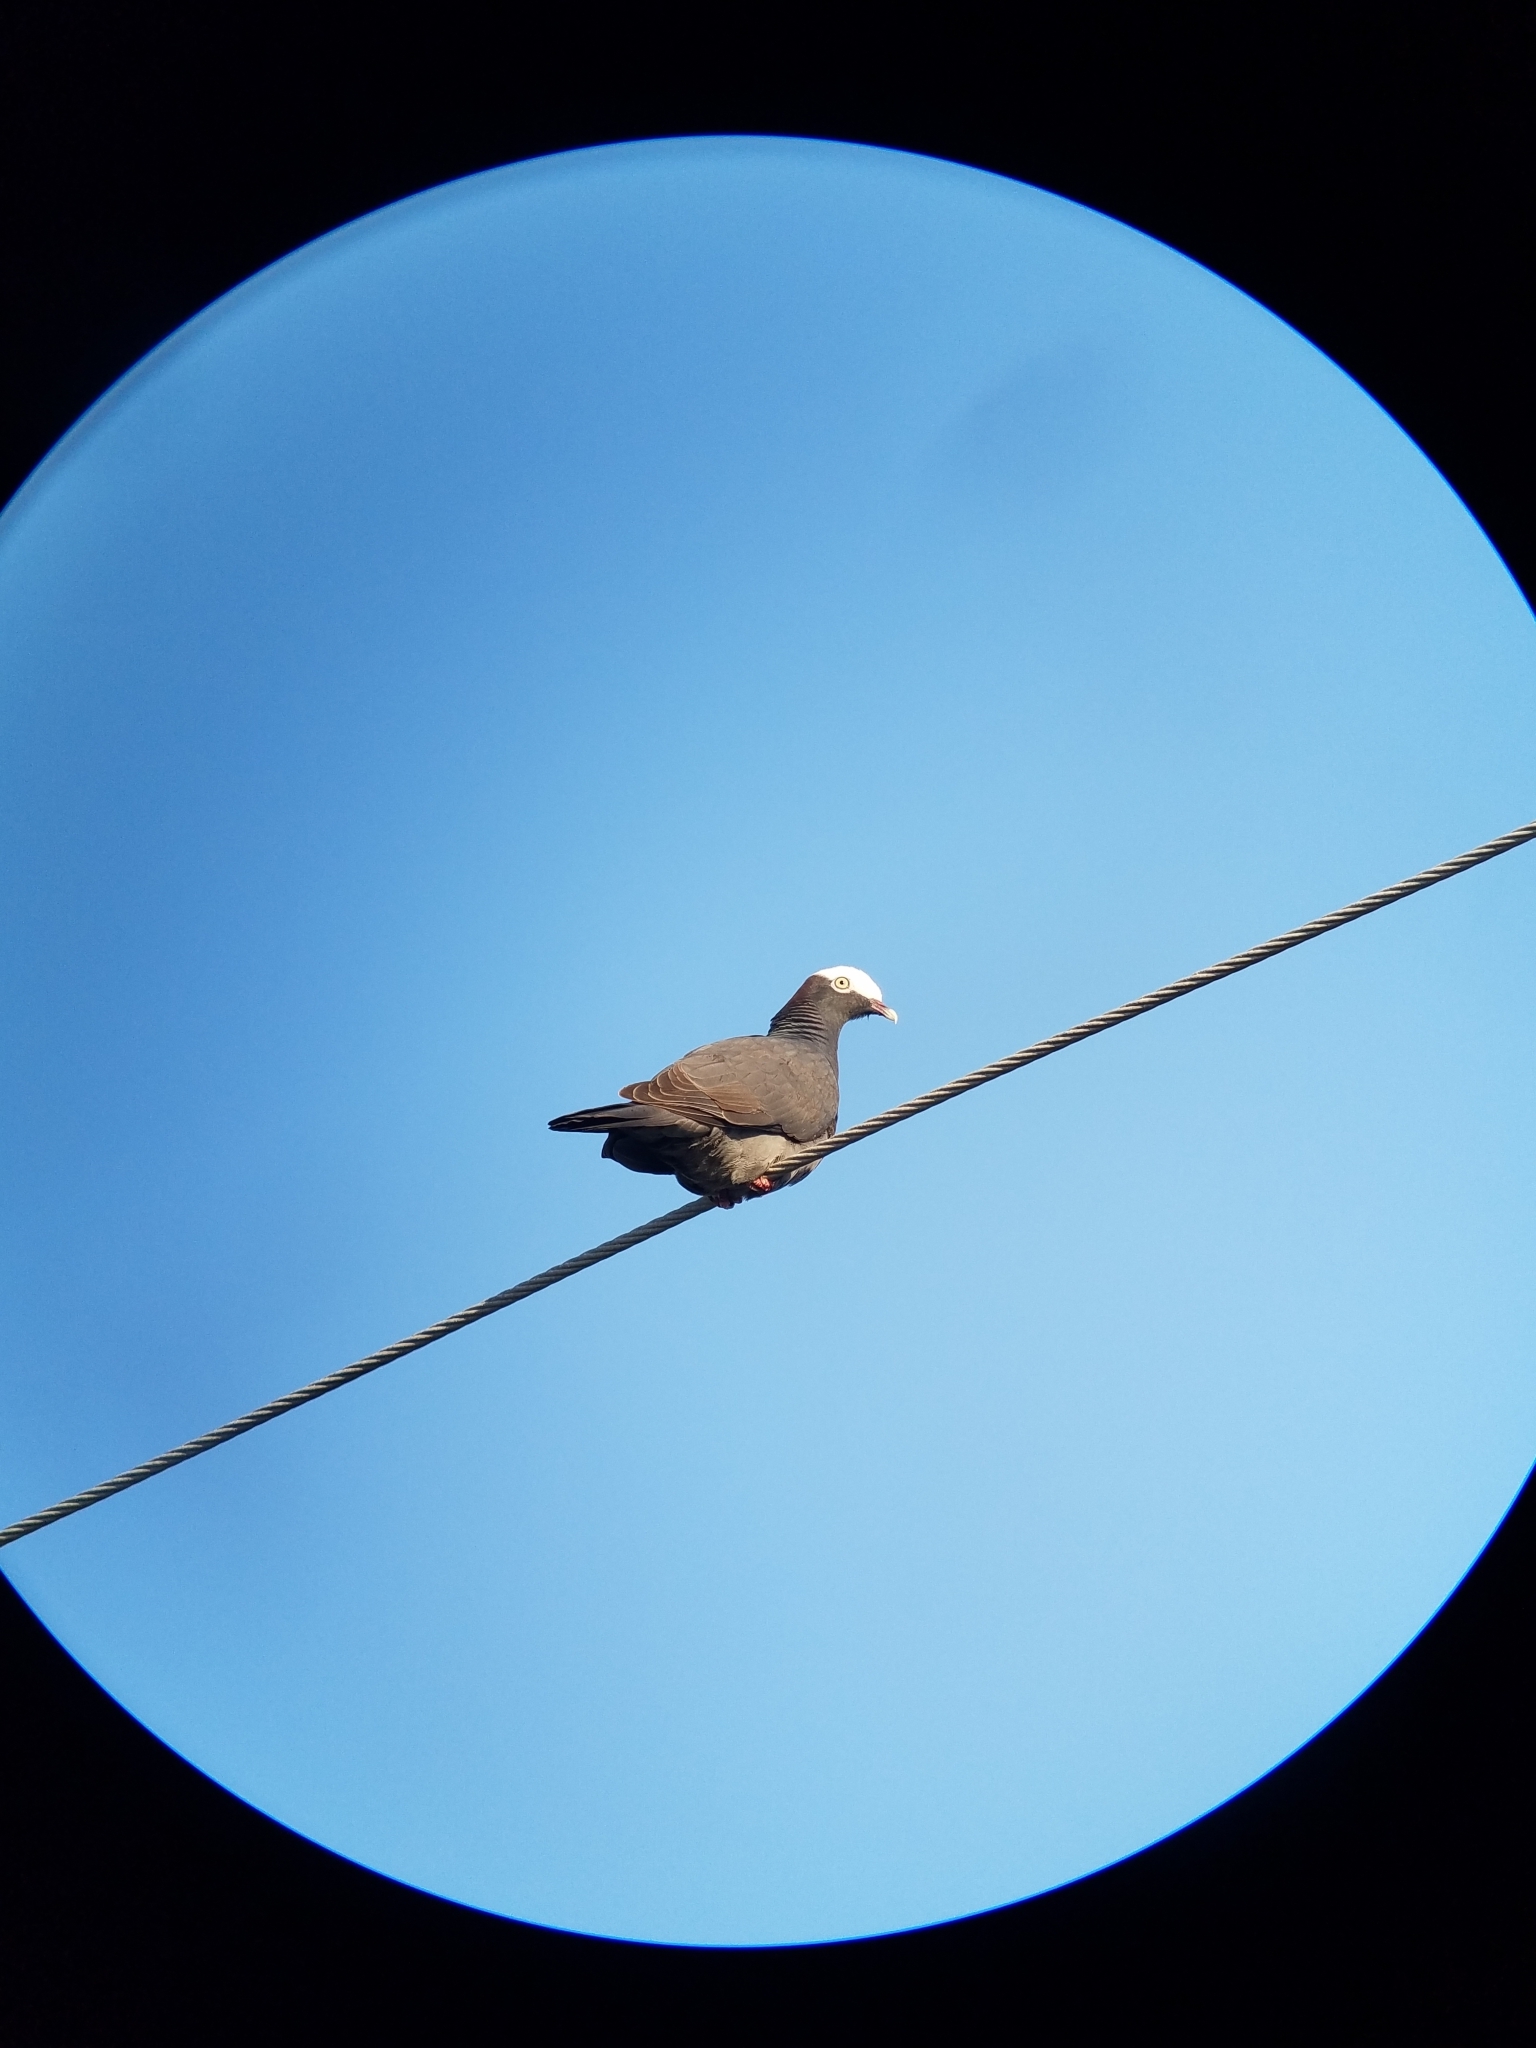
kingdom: Animalia
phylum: Chordata
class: Aves
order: Columbiformes
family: Columbidae
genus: Patagioenas
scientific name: Patagioenas leucocephala
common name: White-crowned pigeon
